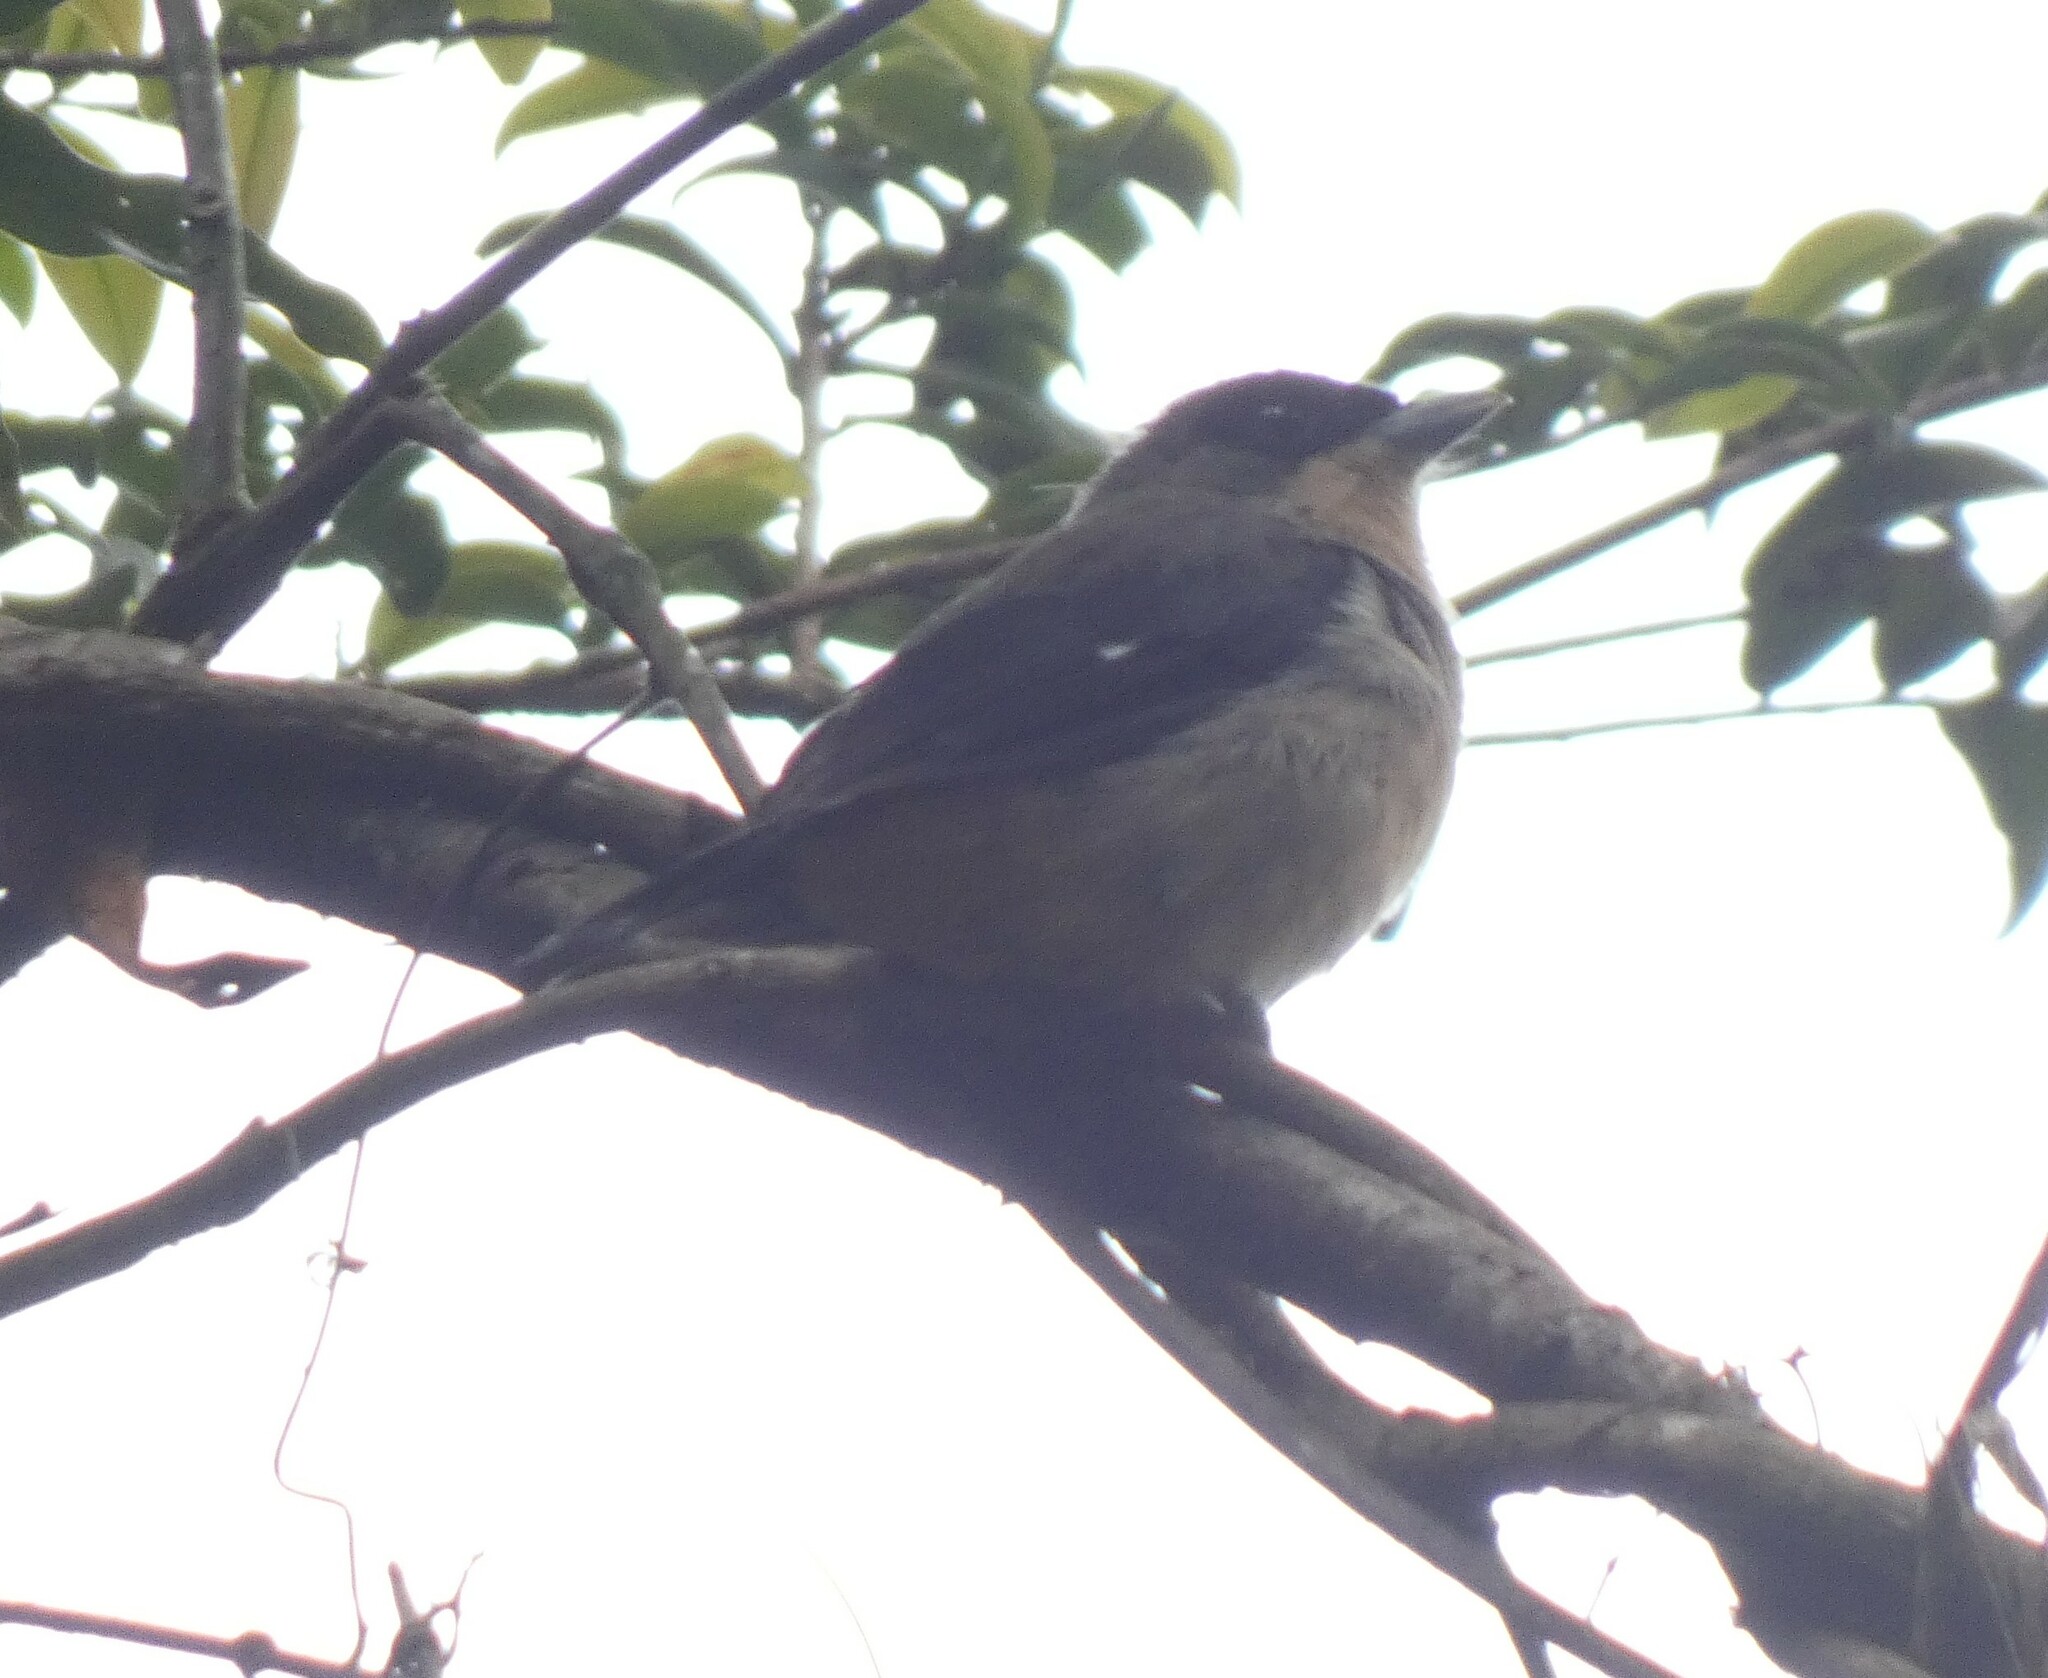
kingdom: Animalia
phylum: Chordata
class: Aves
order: Passeriformes
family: Thraupidae
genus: Trichothraupis
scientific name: Trichothraupis melanops
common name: Black-goggled tanager
